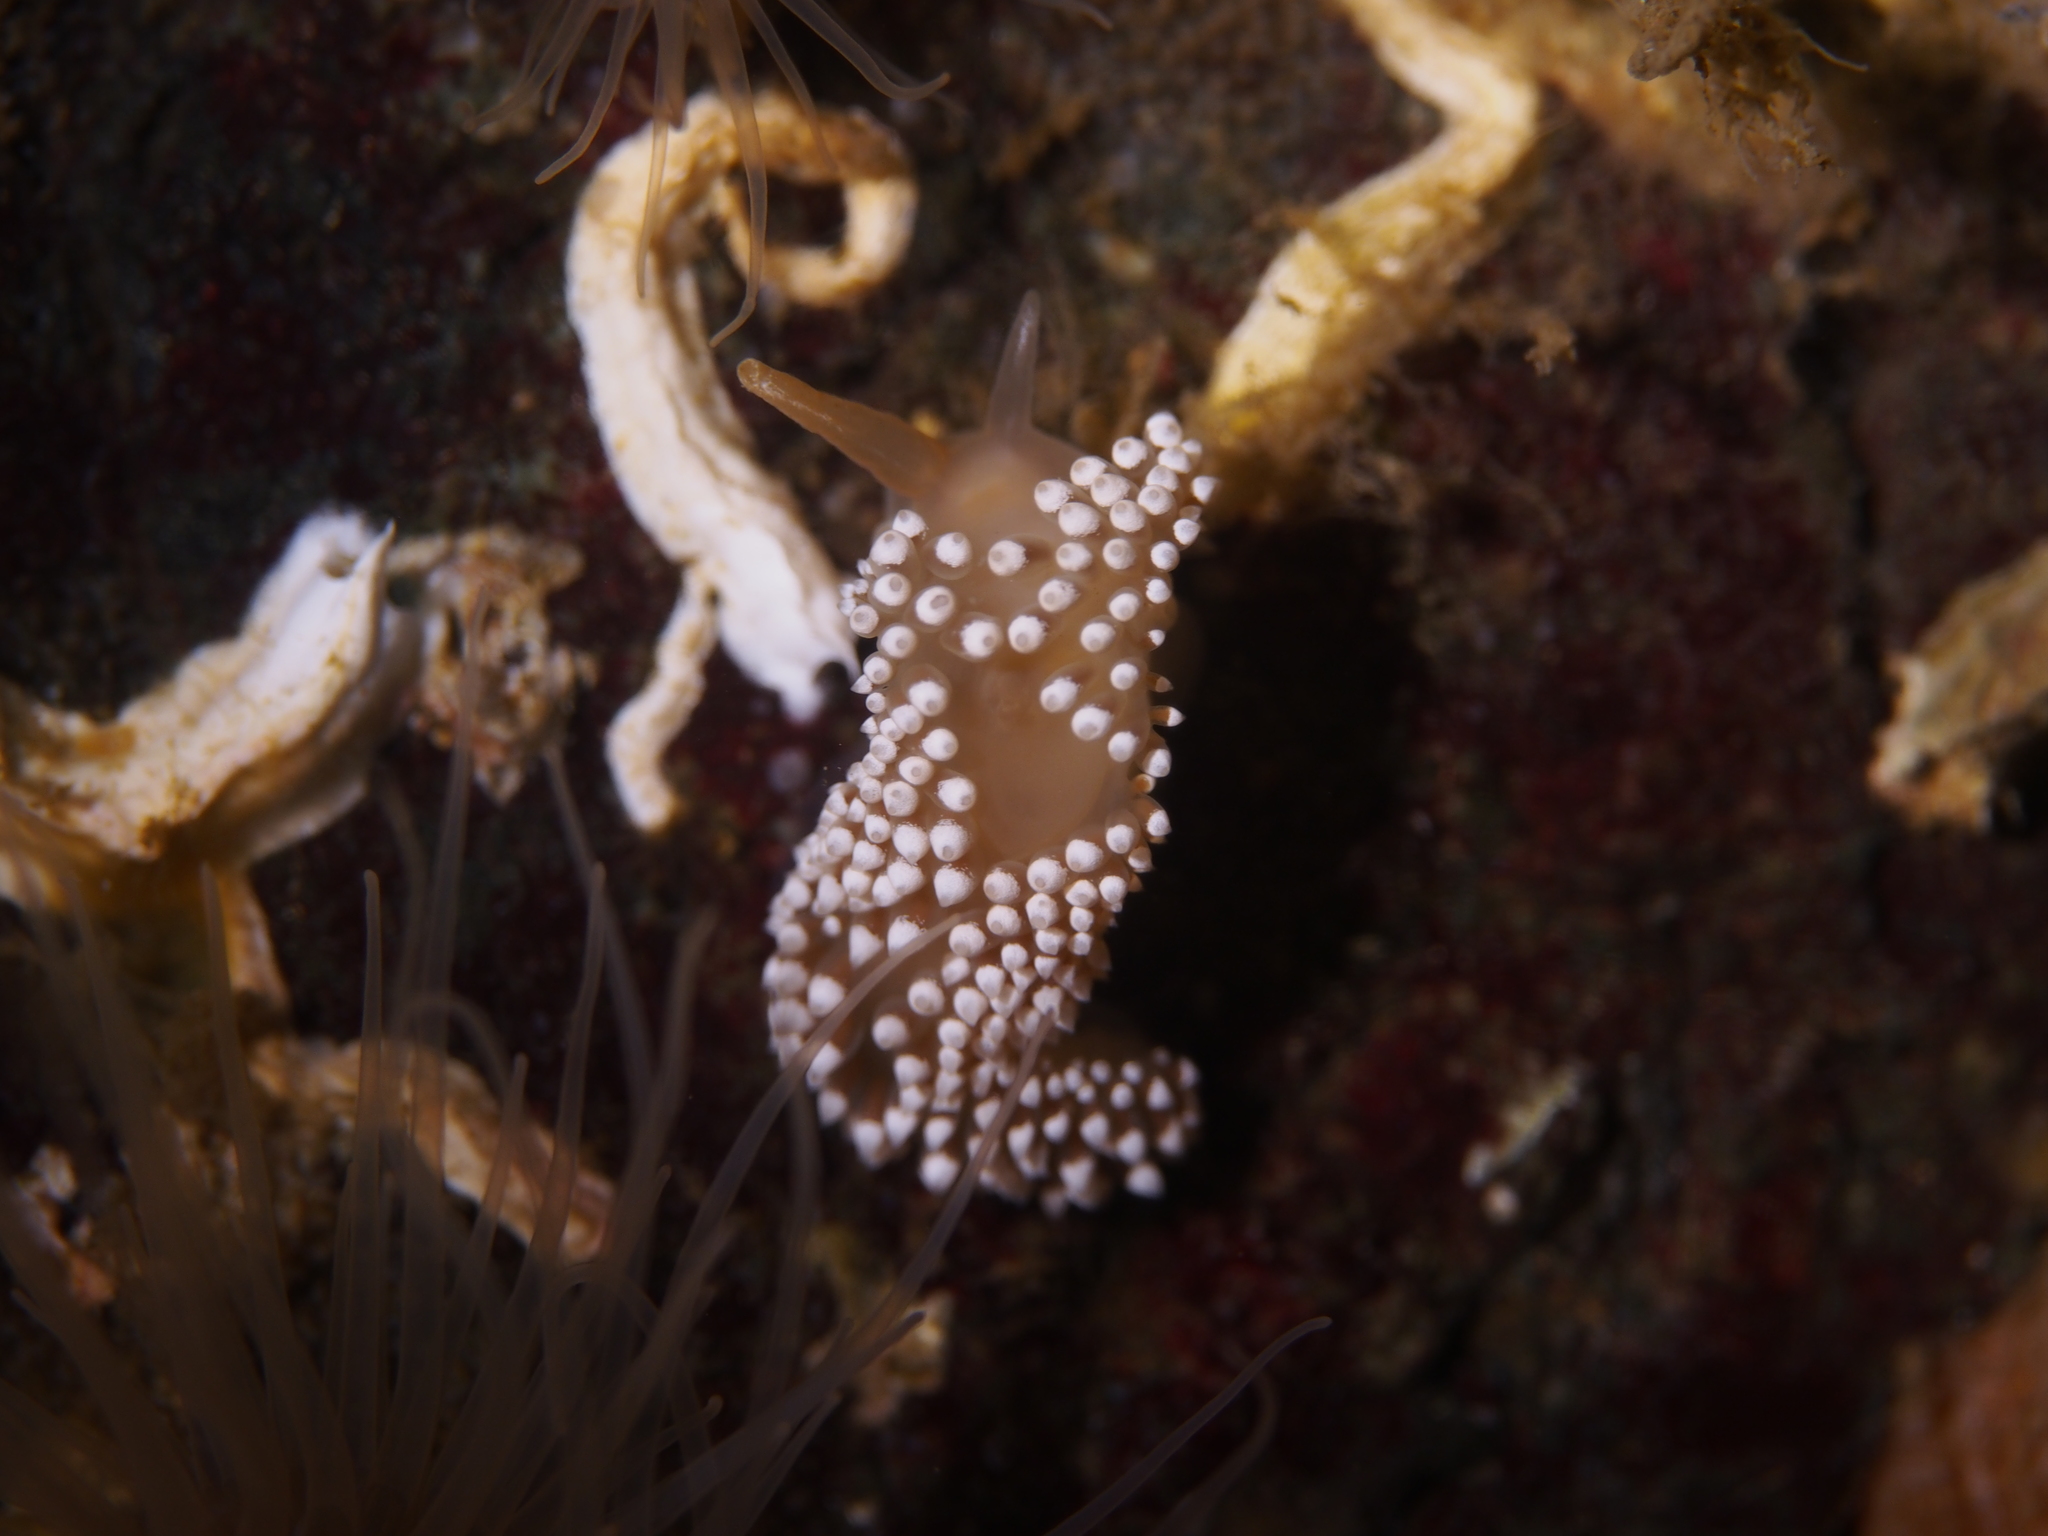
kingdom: Animalia
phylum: Mollusca
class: Gastropoda
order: Nudibranchia
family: Coryphellidae
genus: Coryphella
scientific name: Coryphella verrucosa
